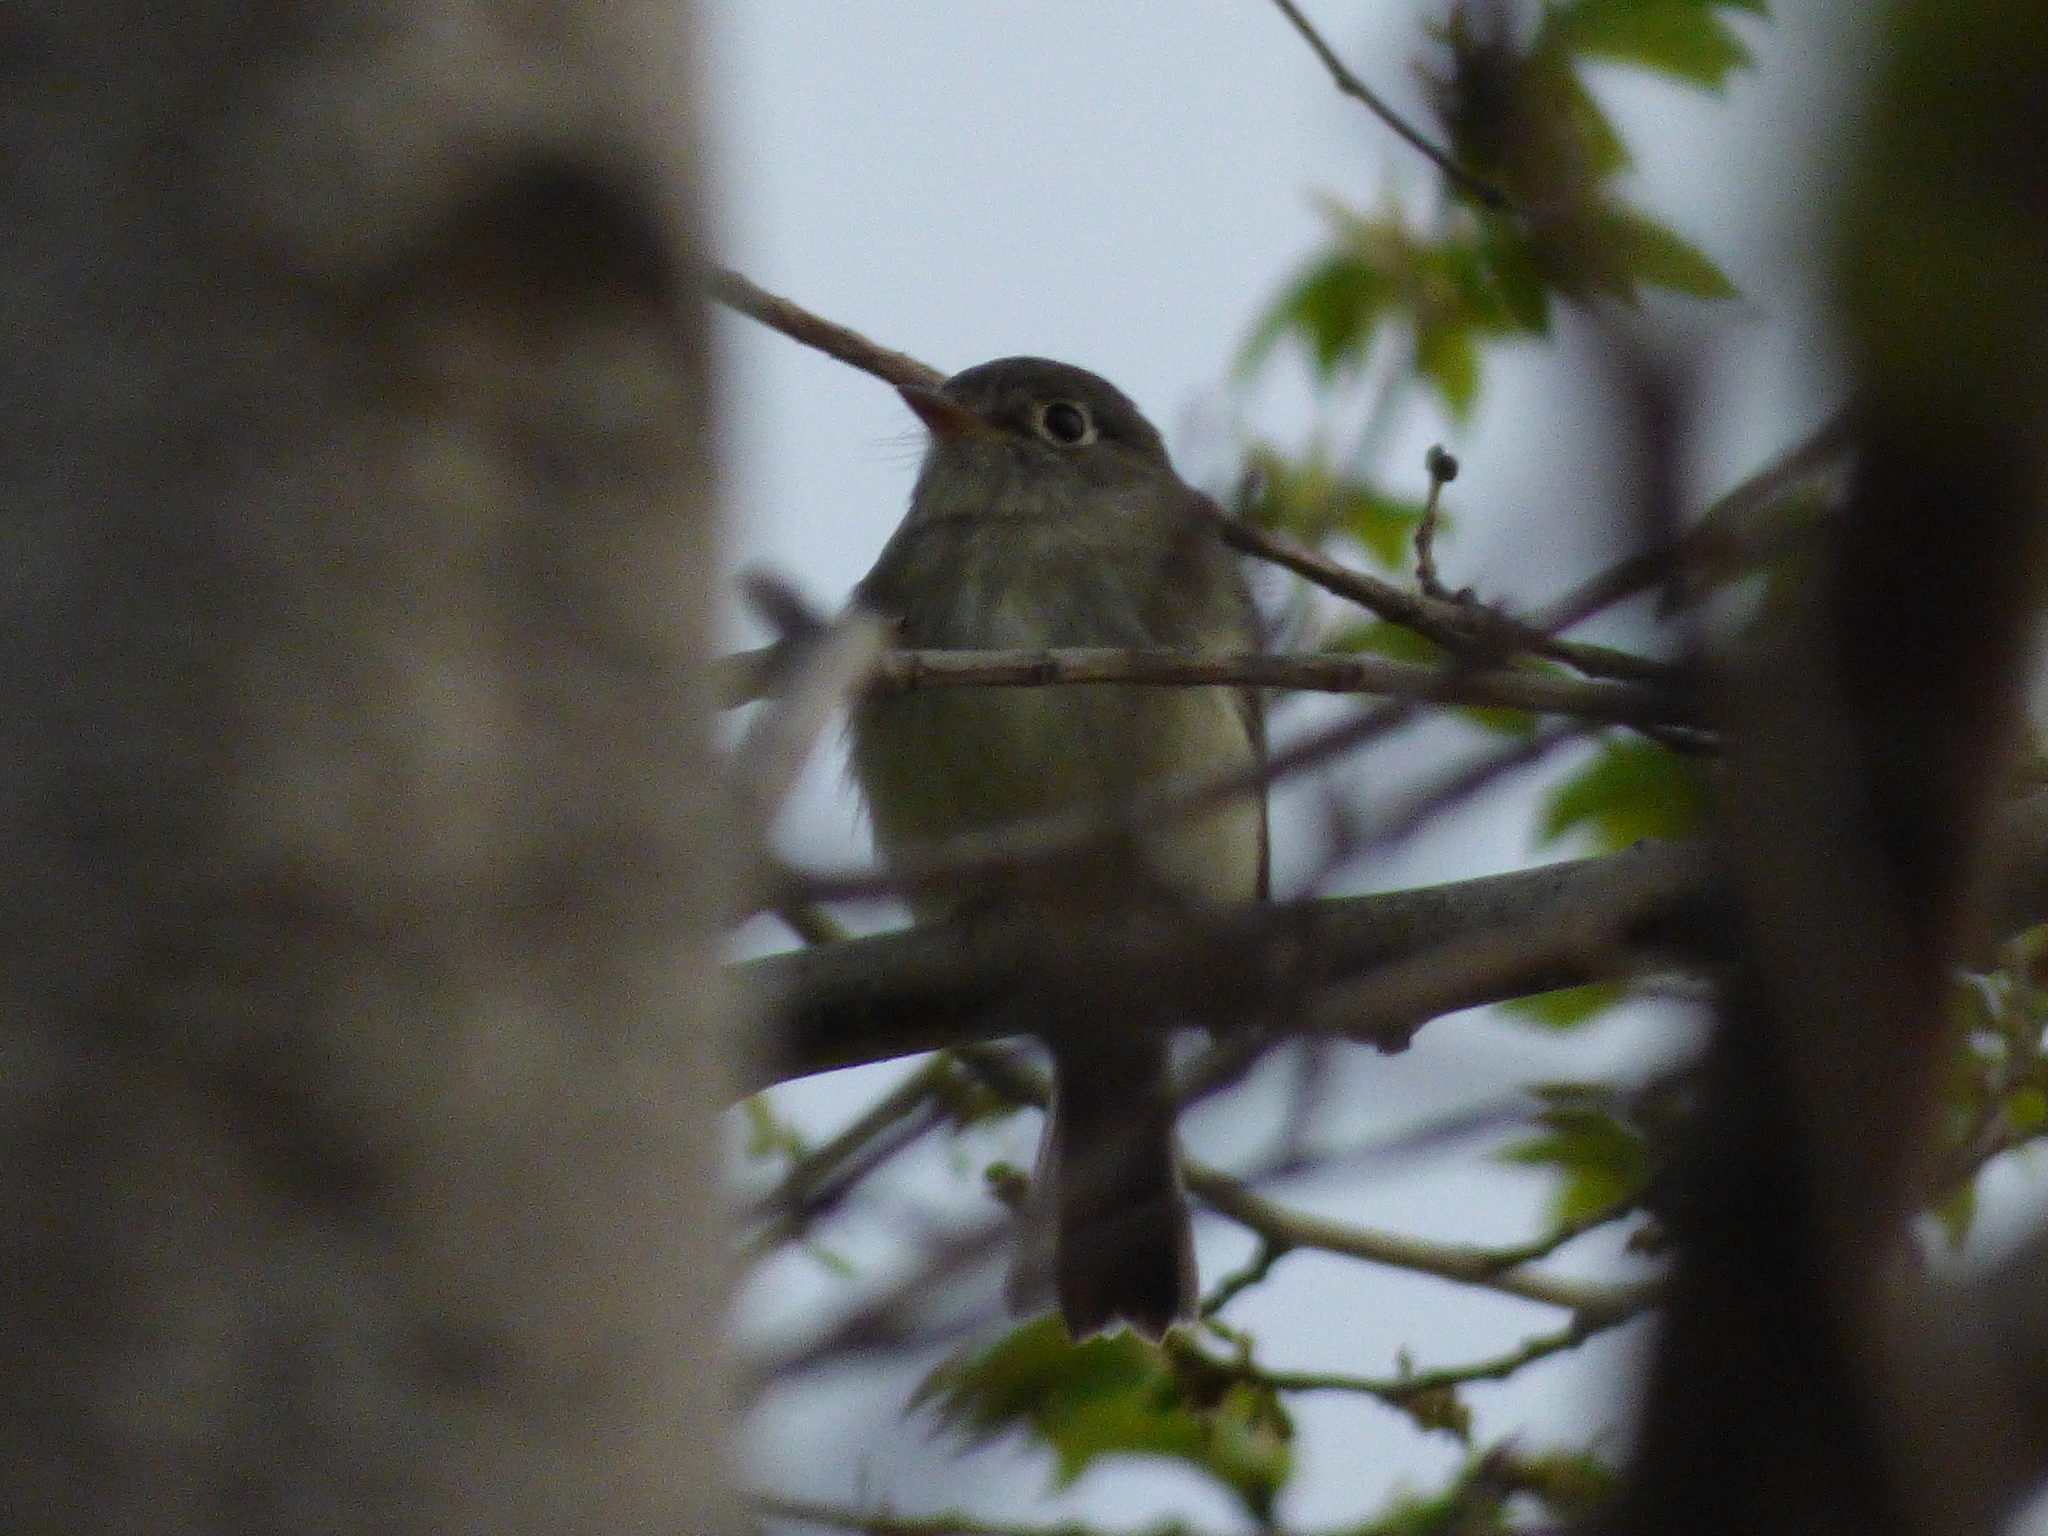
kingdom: Animalia
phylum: Chordata
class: Aves
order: Passeriformes
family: Tyrannidae
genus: Empidonax
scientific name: Empidonax minimus
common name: Least flycatcher
